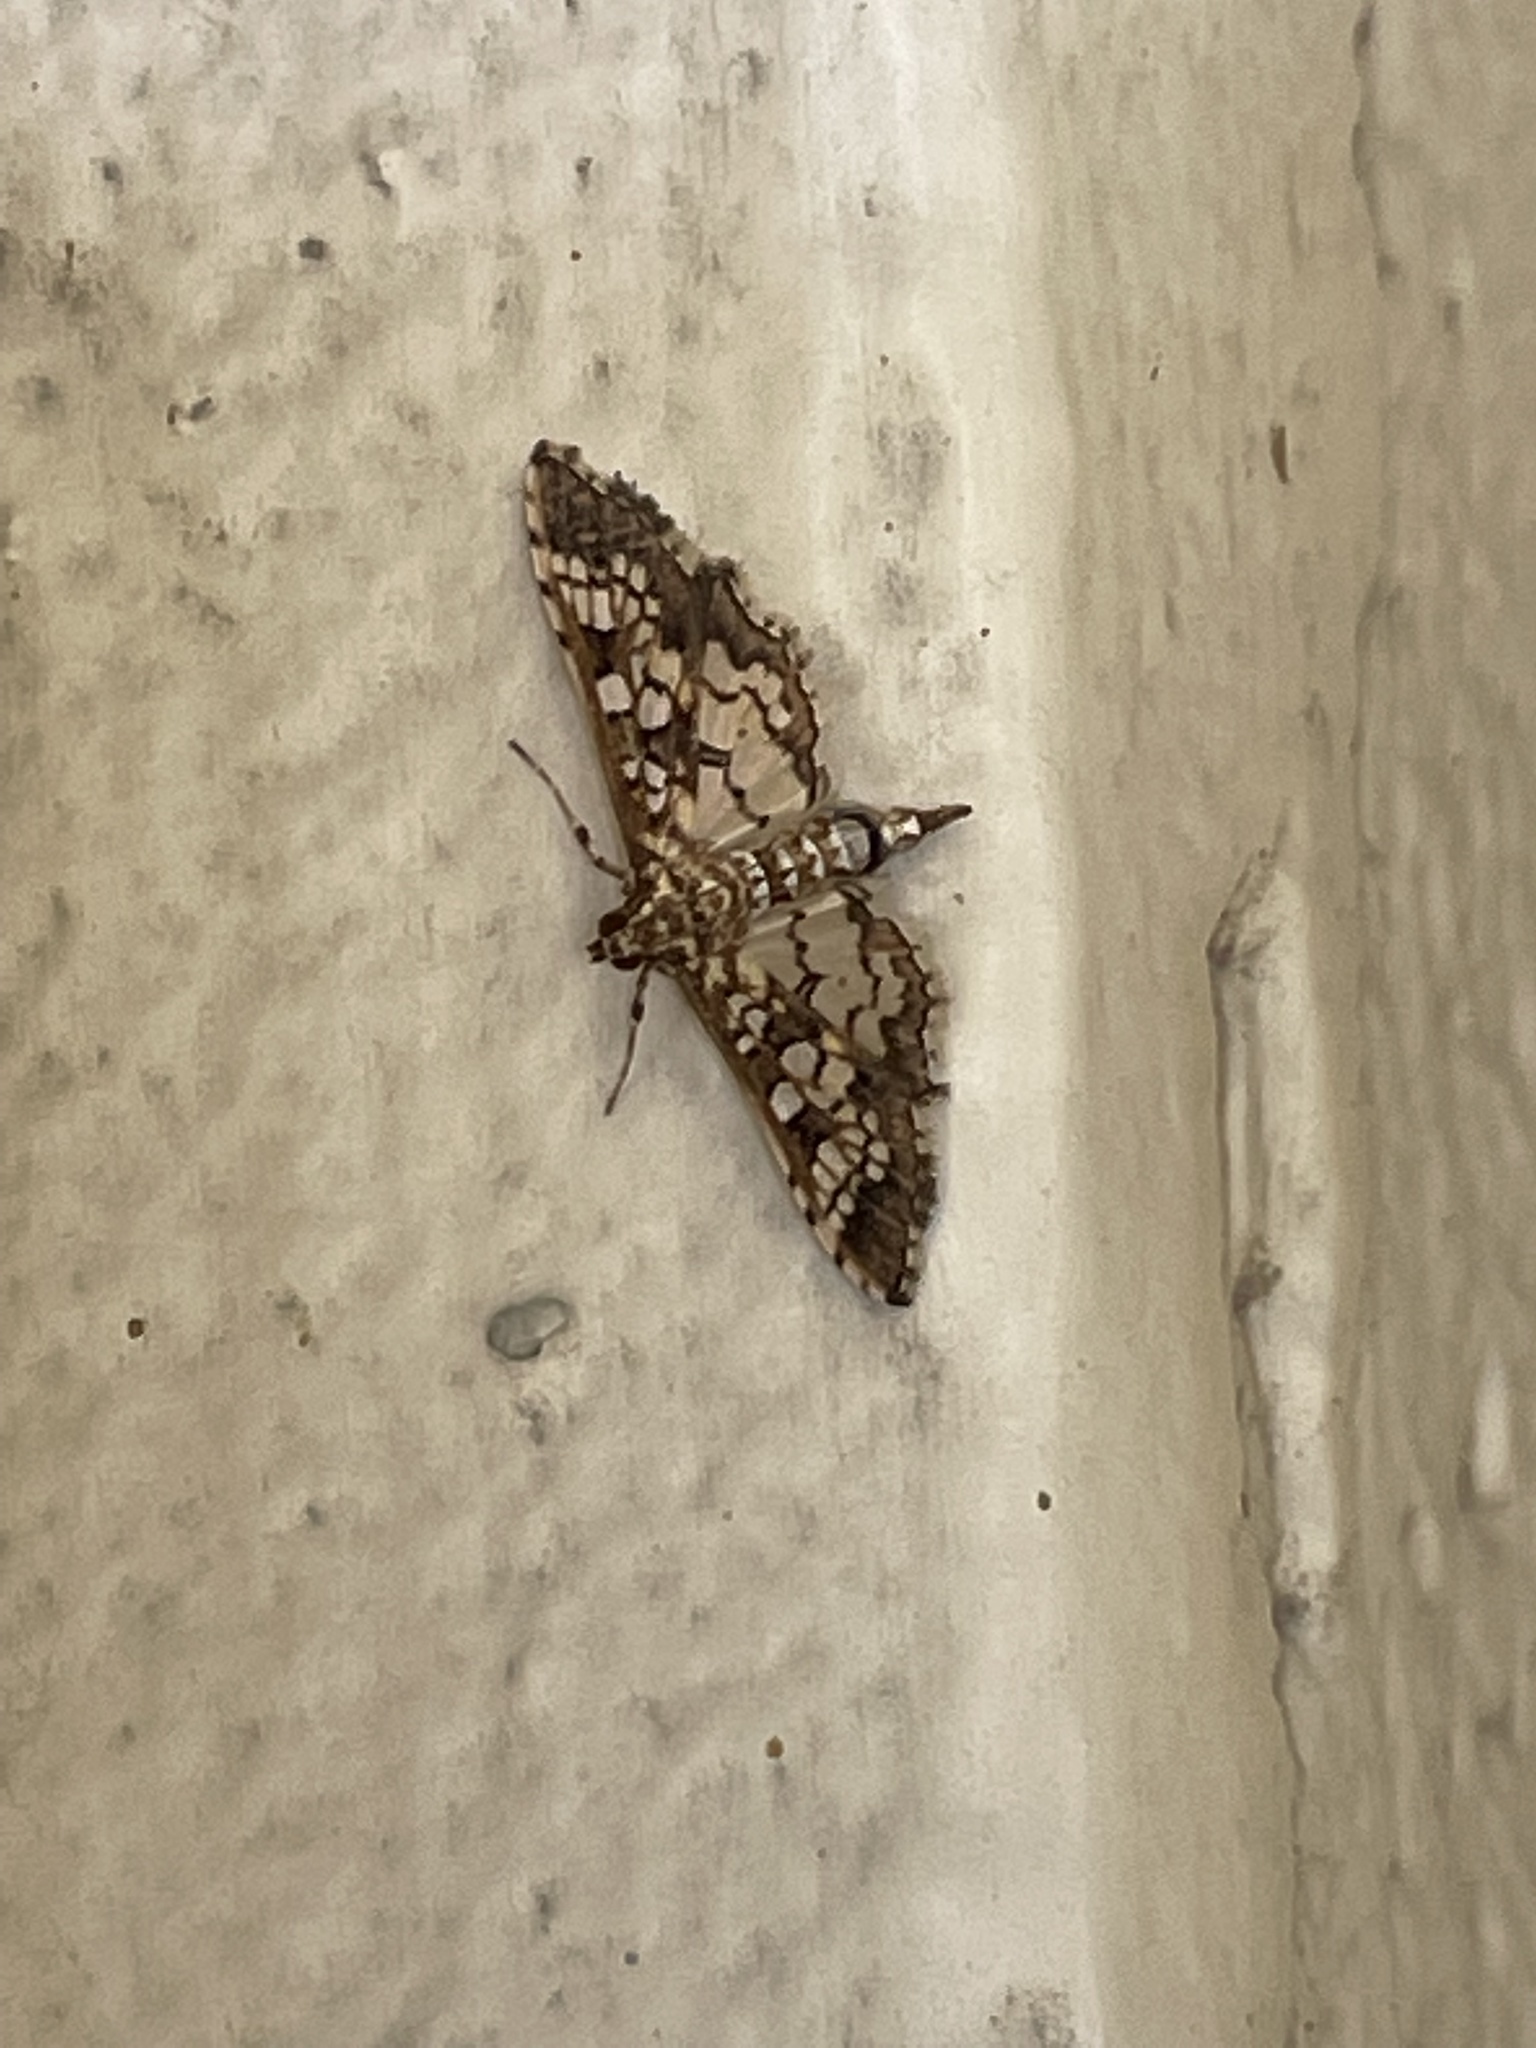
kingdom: Animalia
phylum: Arthropoda
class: Insecta
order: Lepidoptera
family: Crambidae
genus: Samea
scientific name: Samea ecclesialis
